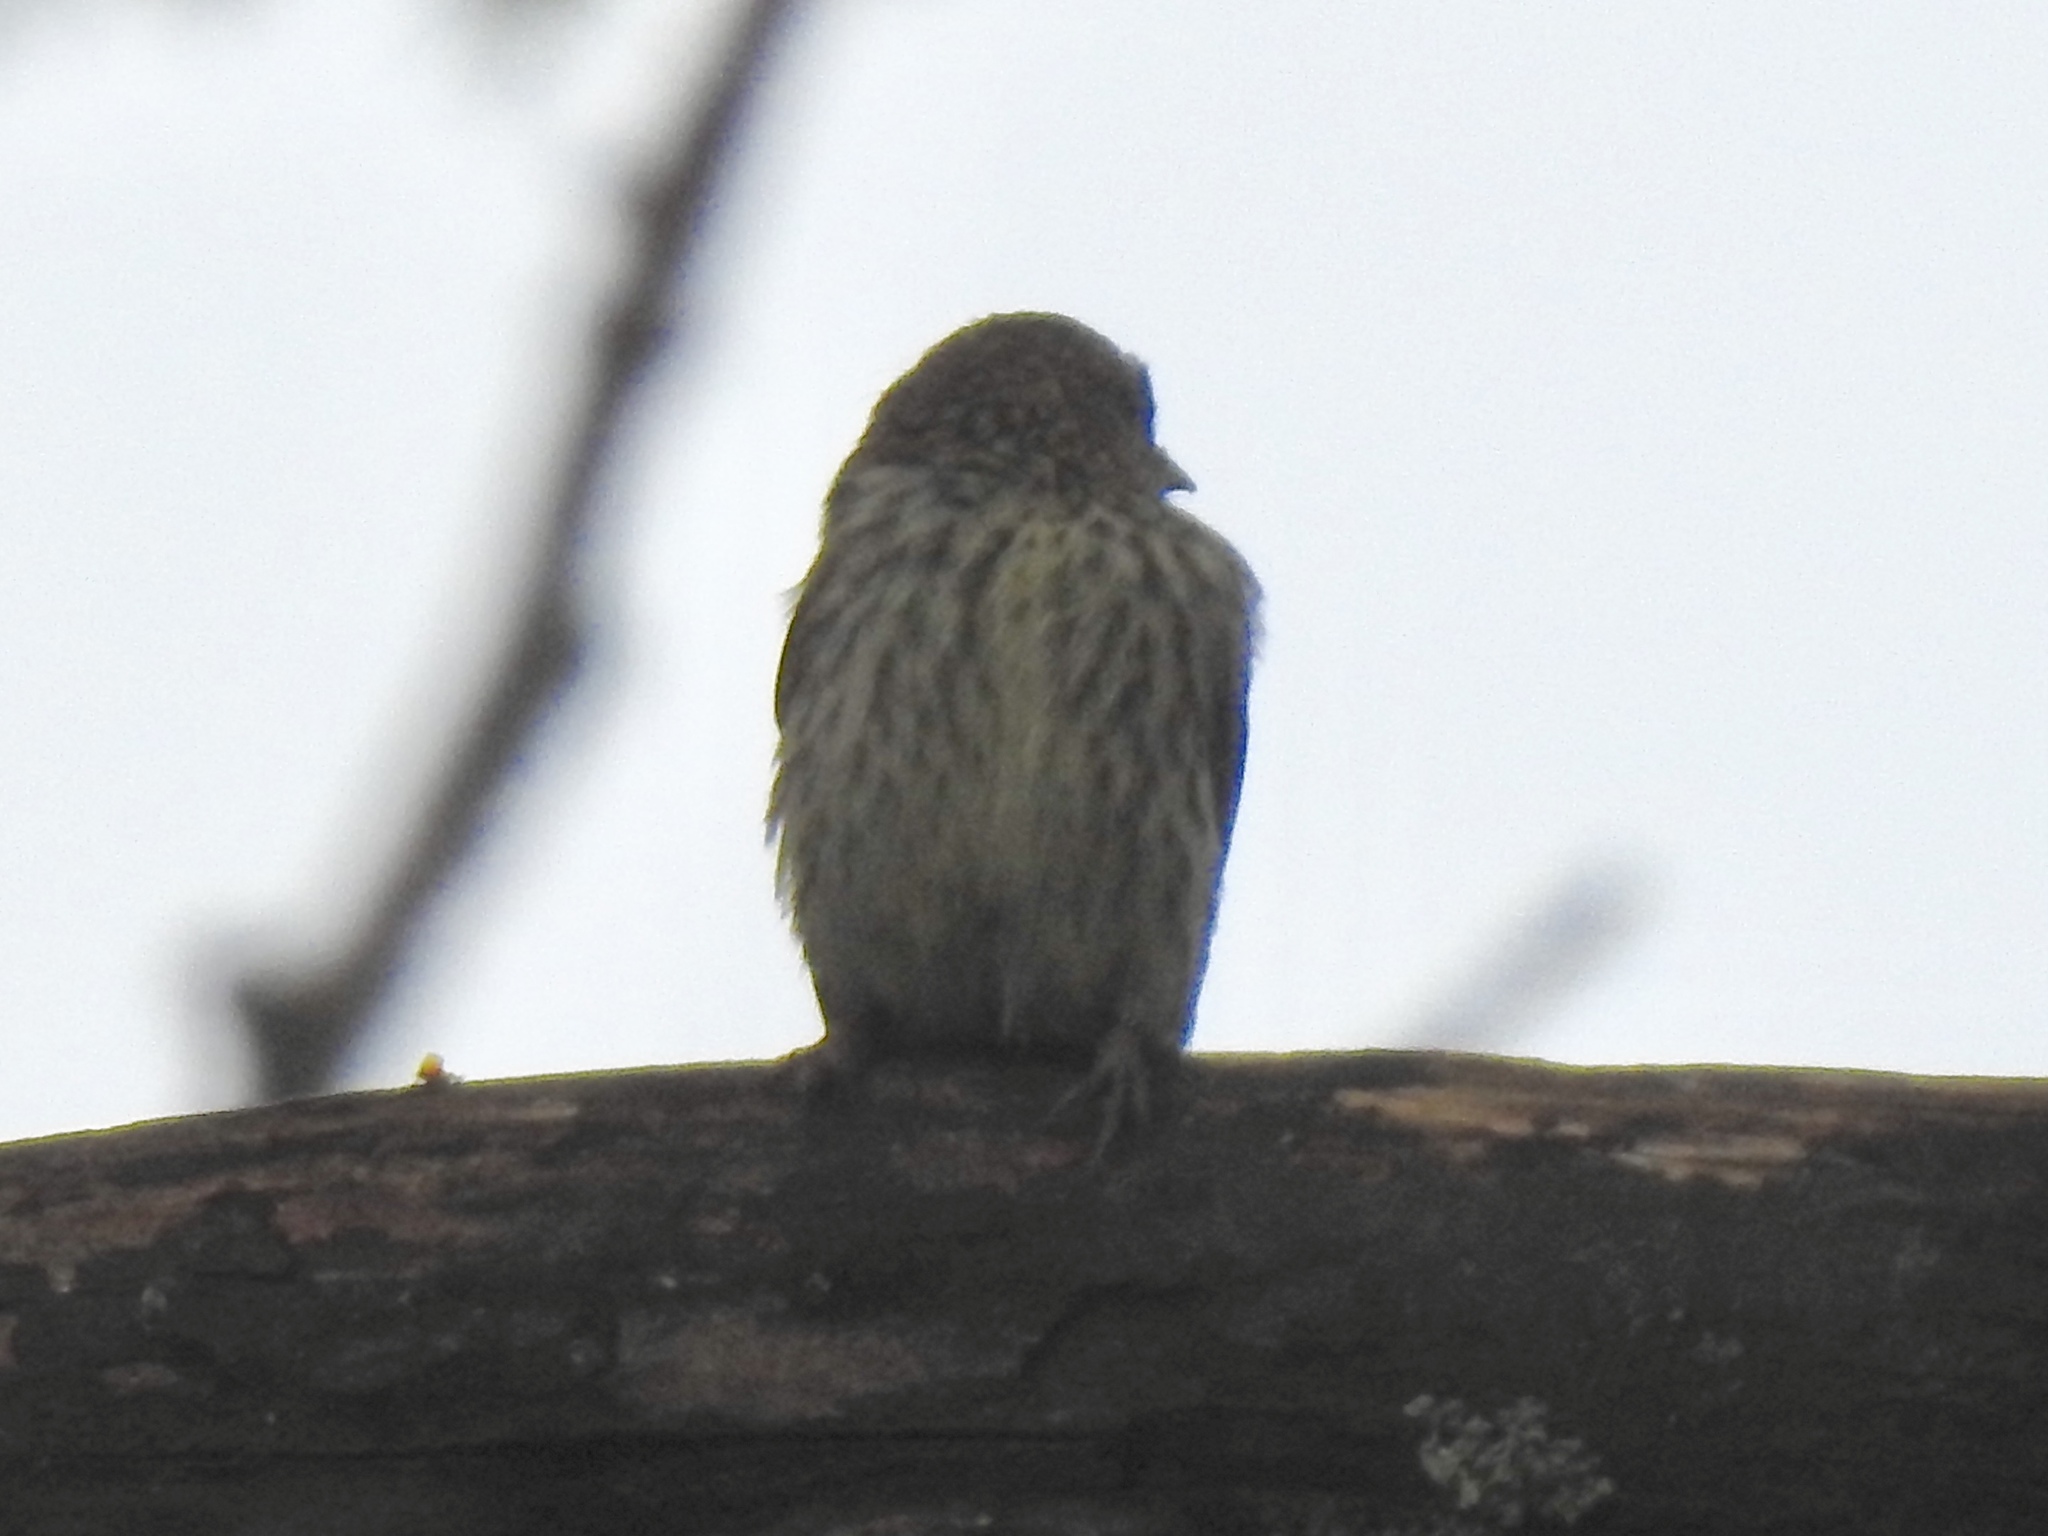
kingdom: Animalia
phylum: Chordata
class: Aves
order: Passeriformes
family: Fringillidae
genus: Spinus
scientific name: Spinus pinus
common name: Pine siskin
